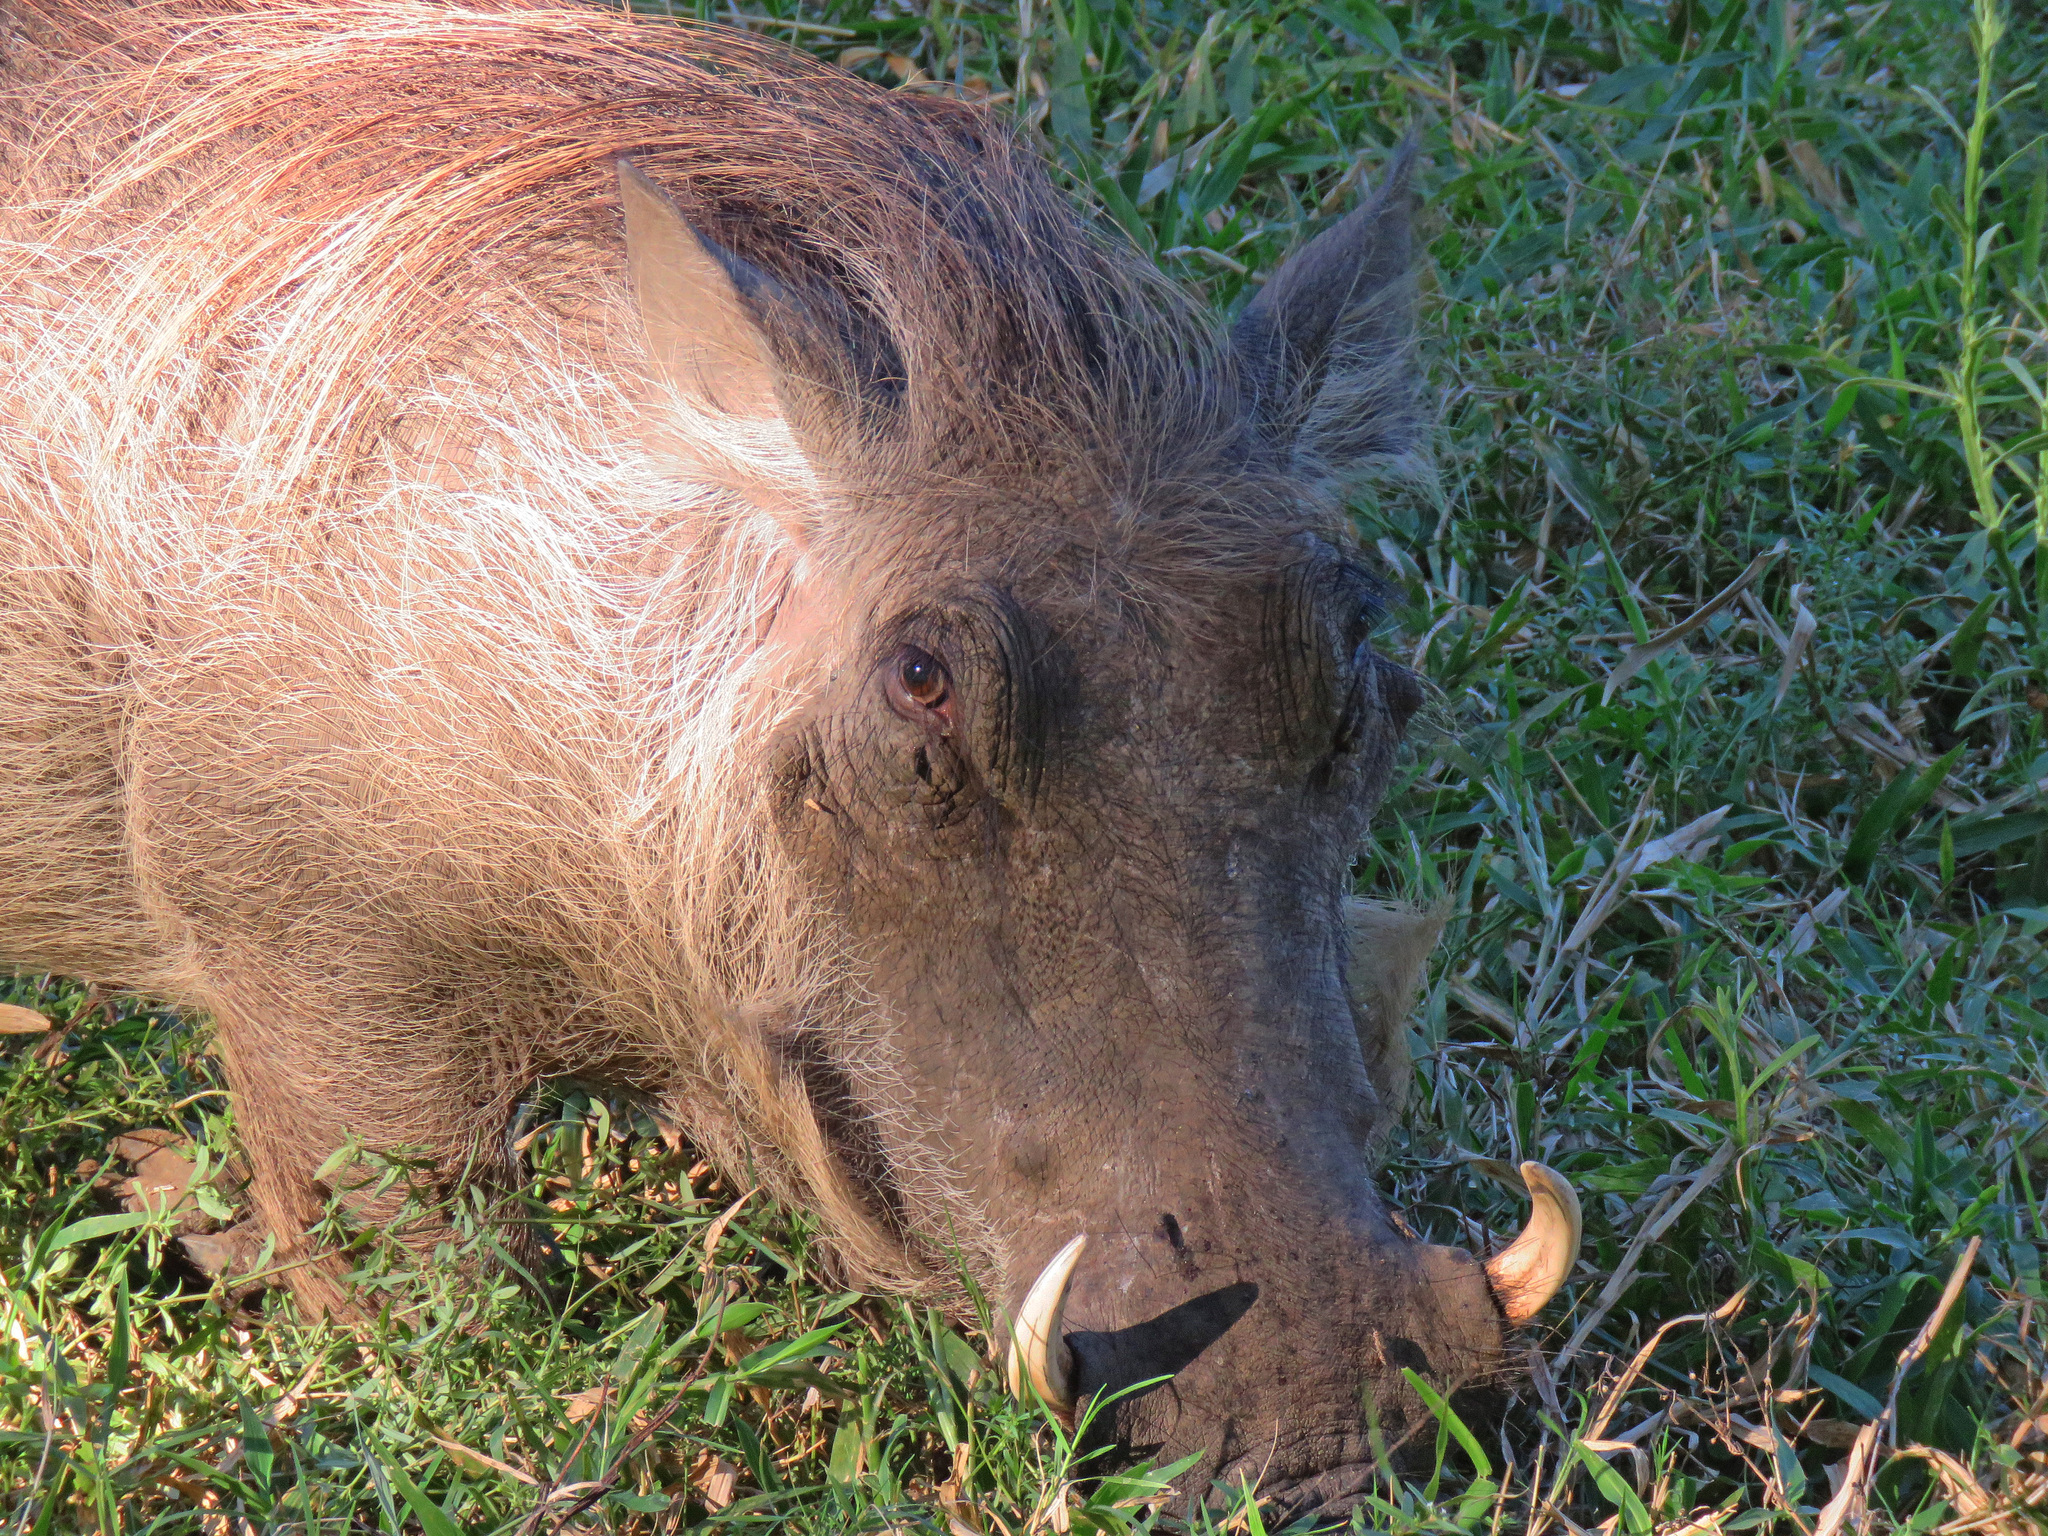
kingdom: Animalia
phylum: Chordata
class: Mammalia
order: Artiodactyla
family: Suidae
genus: Phacochoerus
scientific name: Phacochoerus africanus
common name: Common warthog
